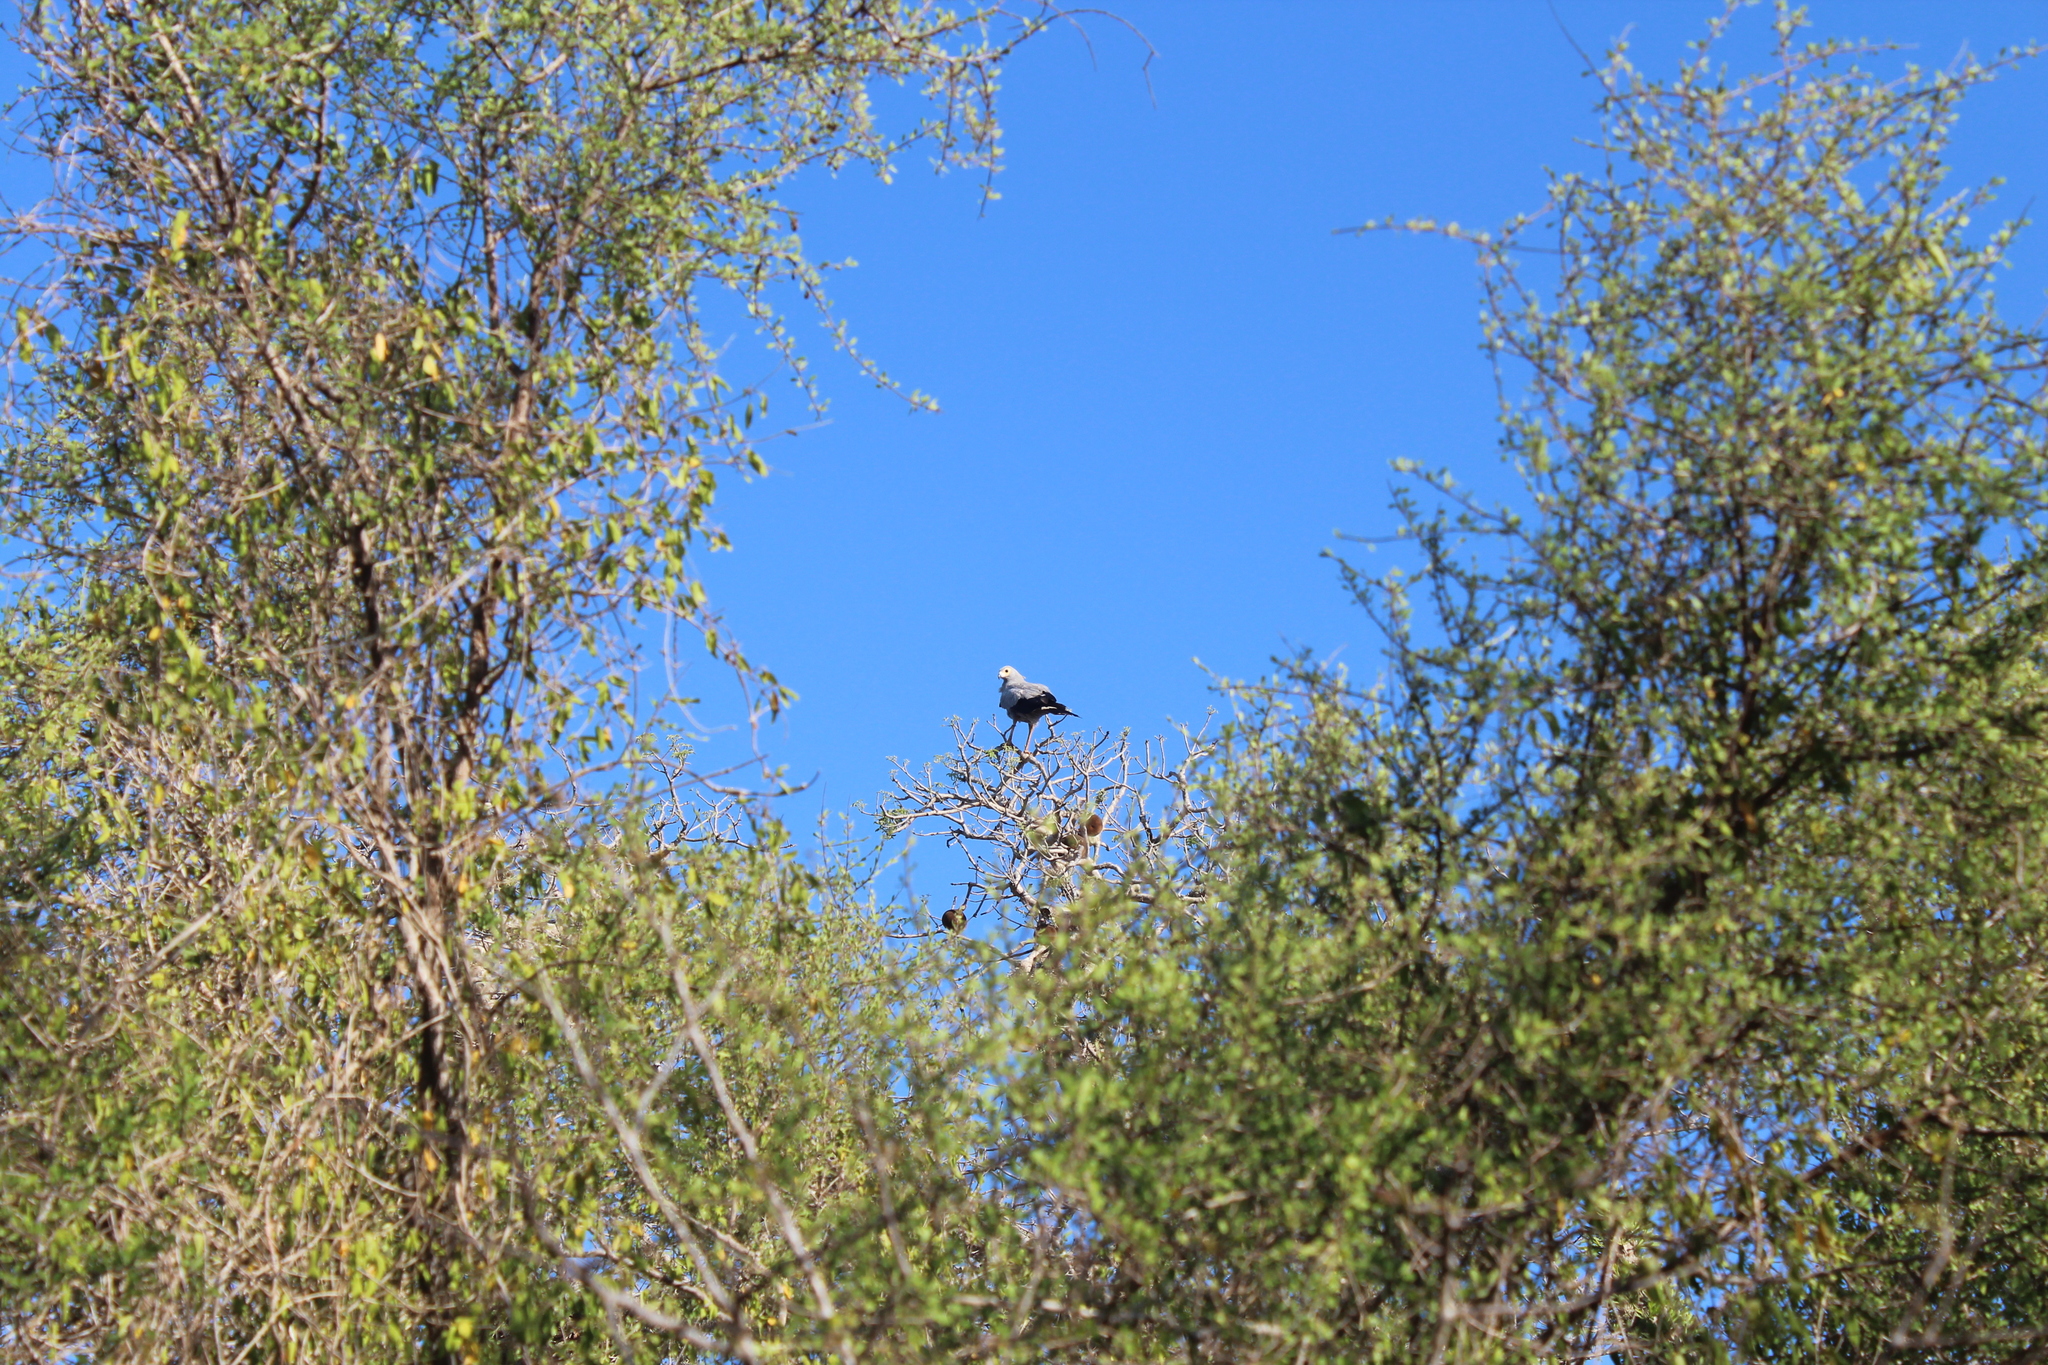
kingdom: Animalia
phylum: Chordata
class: Aves
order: Accipitriformes
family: Accipitridae
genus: Polyboroides
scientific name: Polyboroides radiatus
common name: Madagascar harrier-hawk
